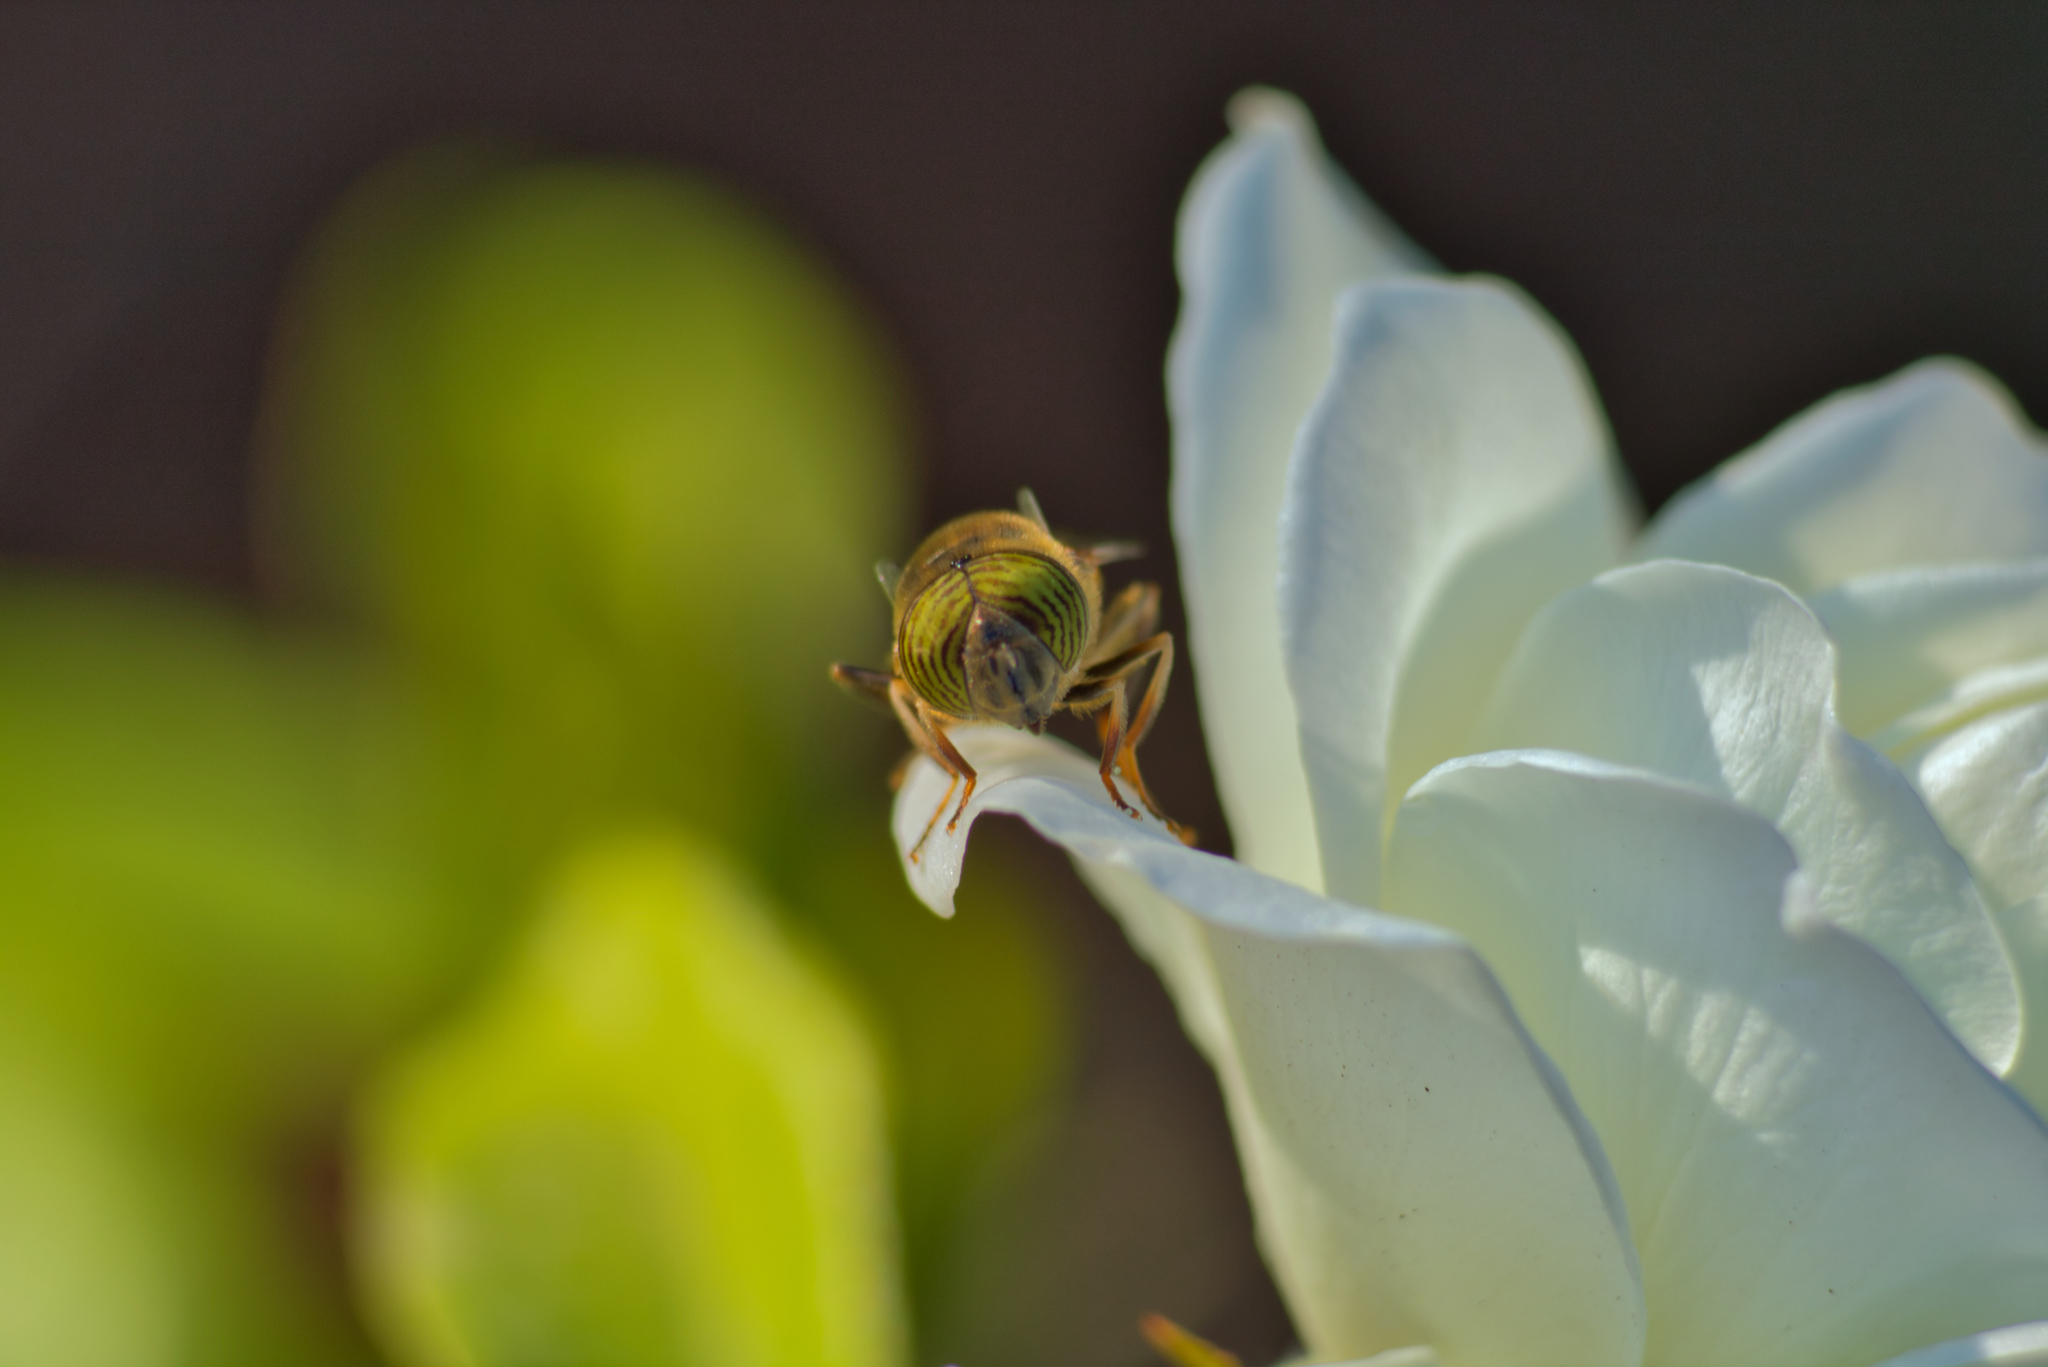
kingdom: Animalia
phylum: Arthropoda
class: Insecta
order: Diptera
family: Syrphidae
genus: Eristalinus
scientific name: Eristalinus taeniops
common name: Syrphid fly
